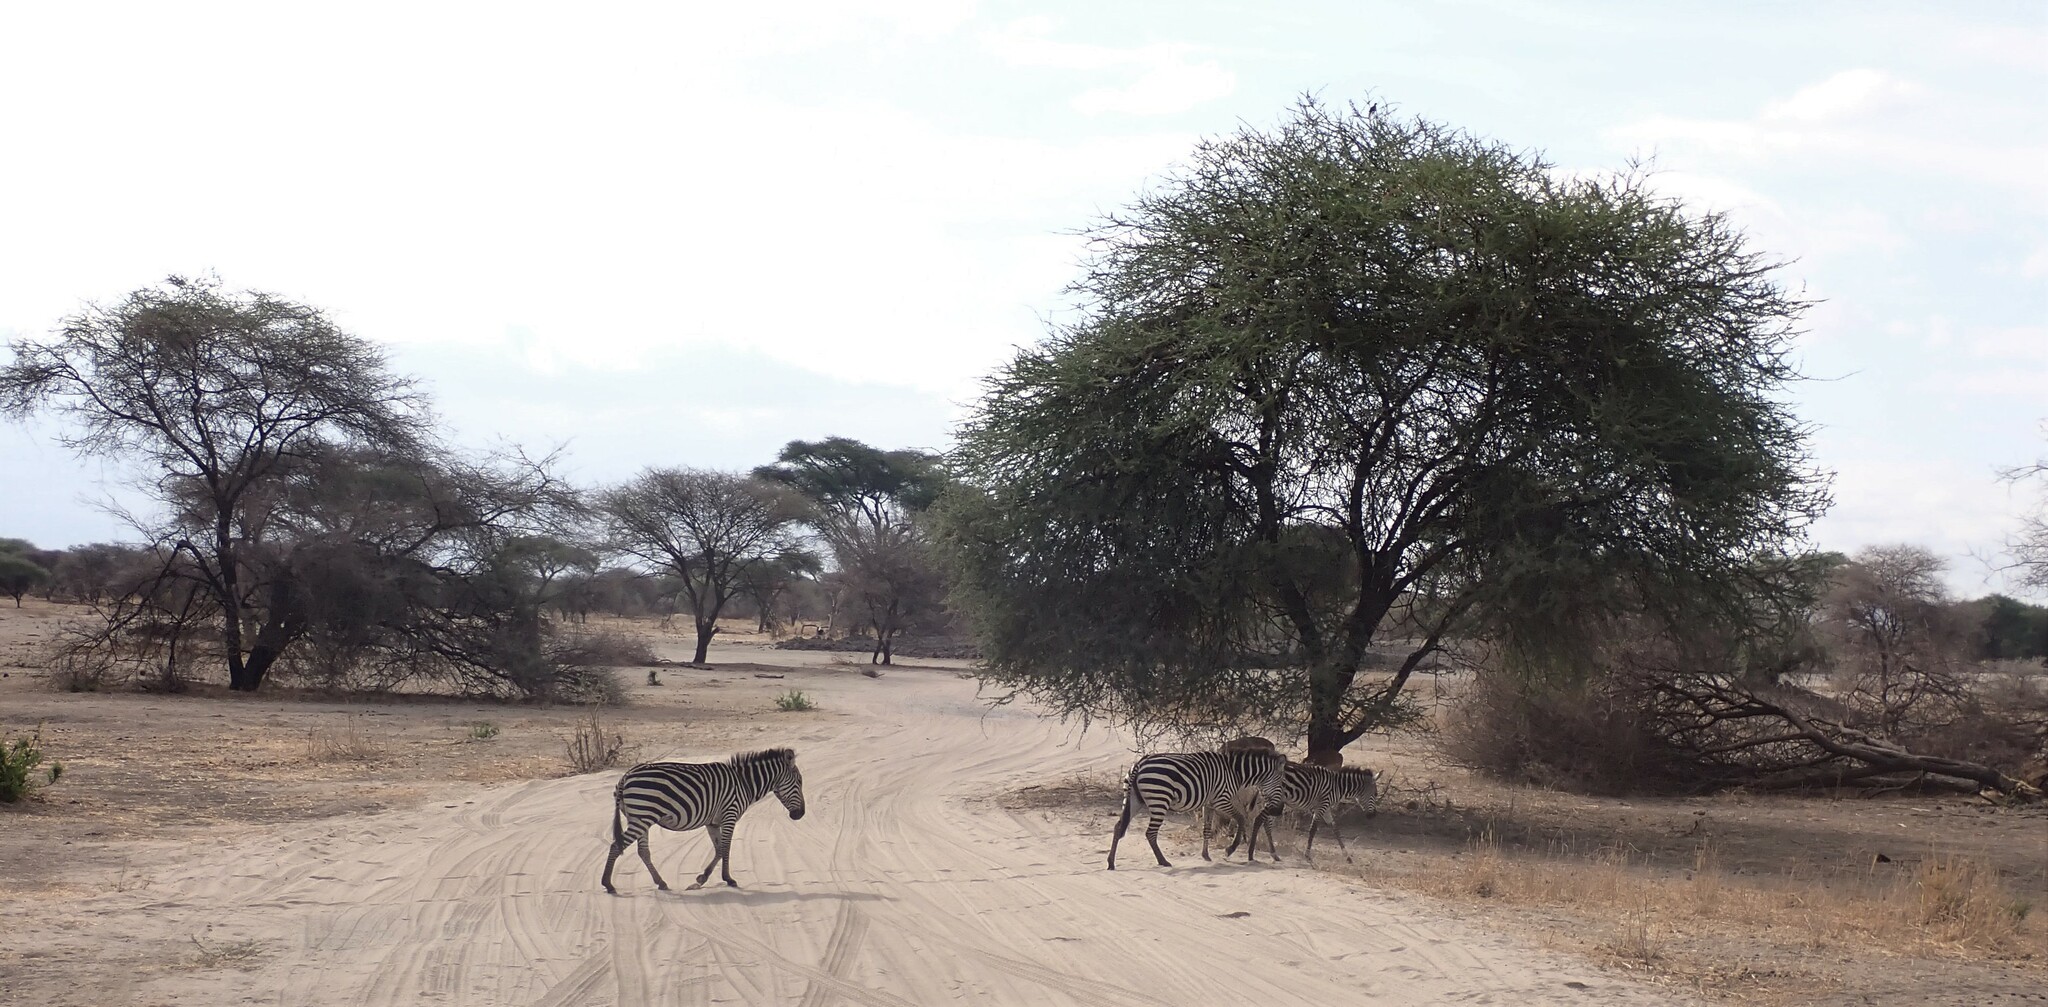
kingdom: Animalia
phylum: Chordata
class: Mammalia
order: Perissodactyla
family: Equidae
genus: Equus
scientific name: Equus quagga
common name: Plains zebra
